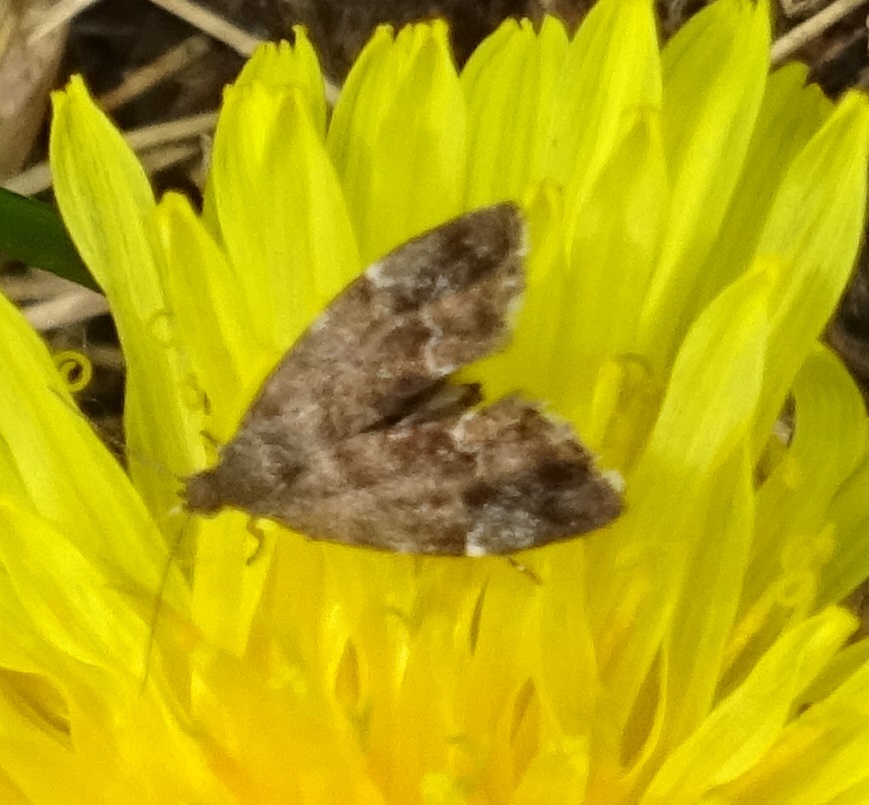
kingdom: Animalia
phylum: Arthropoda
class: Insecta
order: Lepidoptera
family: Choreutidae
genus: Anthophila
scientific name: Anthophila fabriciana
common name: Nettle-tap
